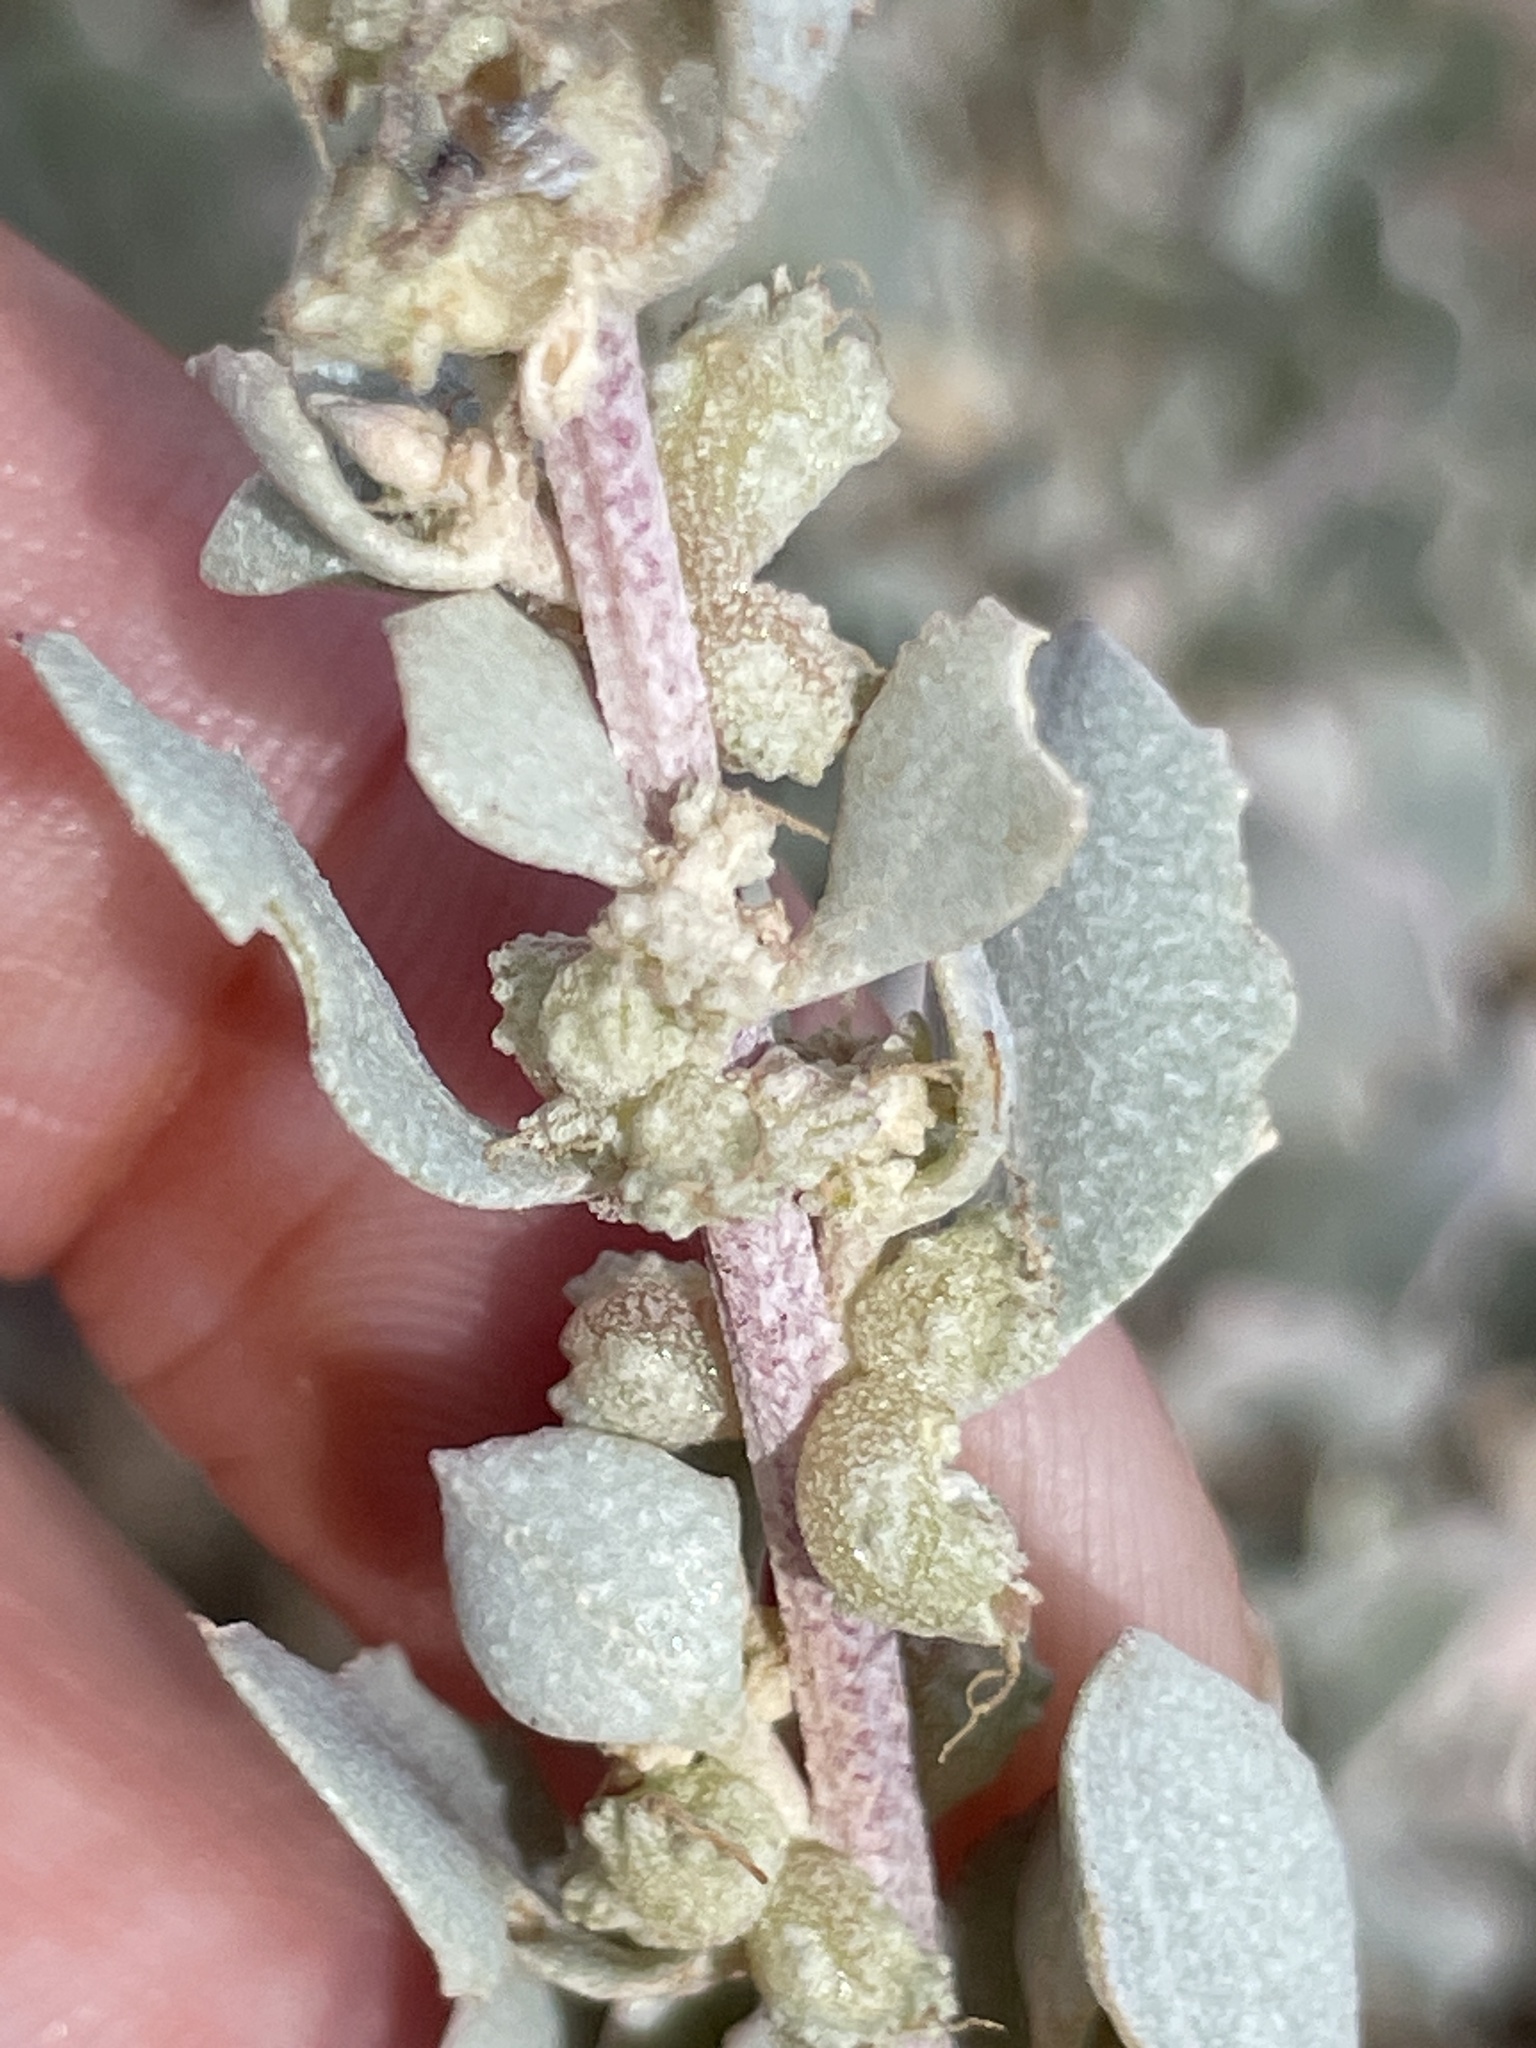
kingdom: Plantae
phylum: Tracheophyta
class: Magnoliopsida
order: Caryophyllales
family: Amaranthaceae
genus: Atriplex
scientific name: Atriplex barclayana
